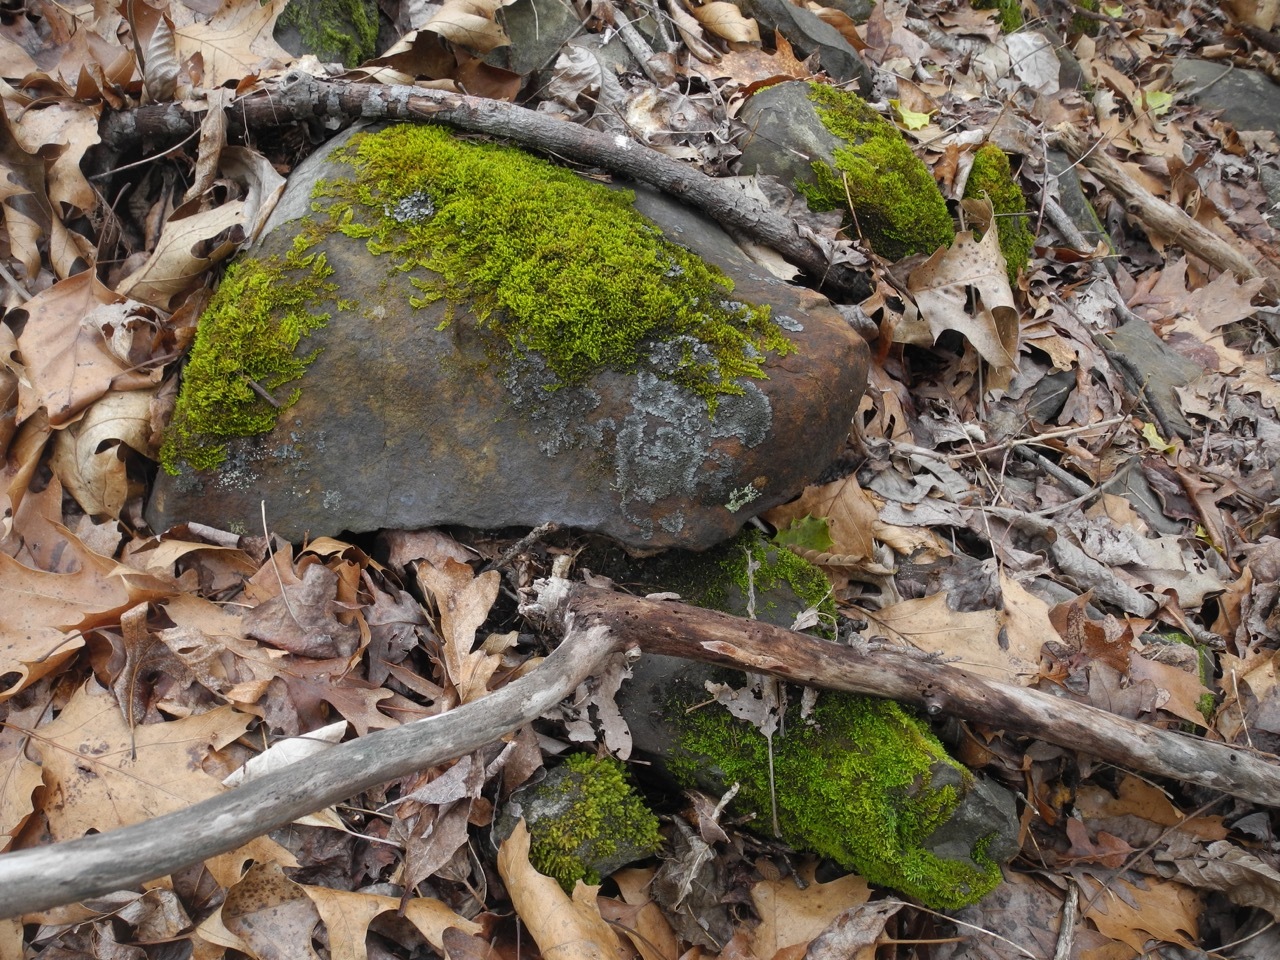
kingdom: Plantae
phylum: Bryophyta
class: Bryopsida
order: Hypnales
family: Theliaceae
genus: Thelia
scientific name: Thelia hirtella
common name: Common thelia
